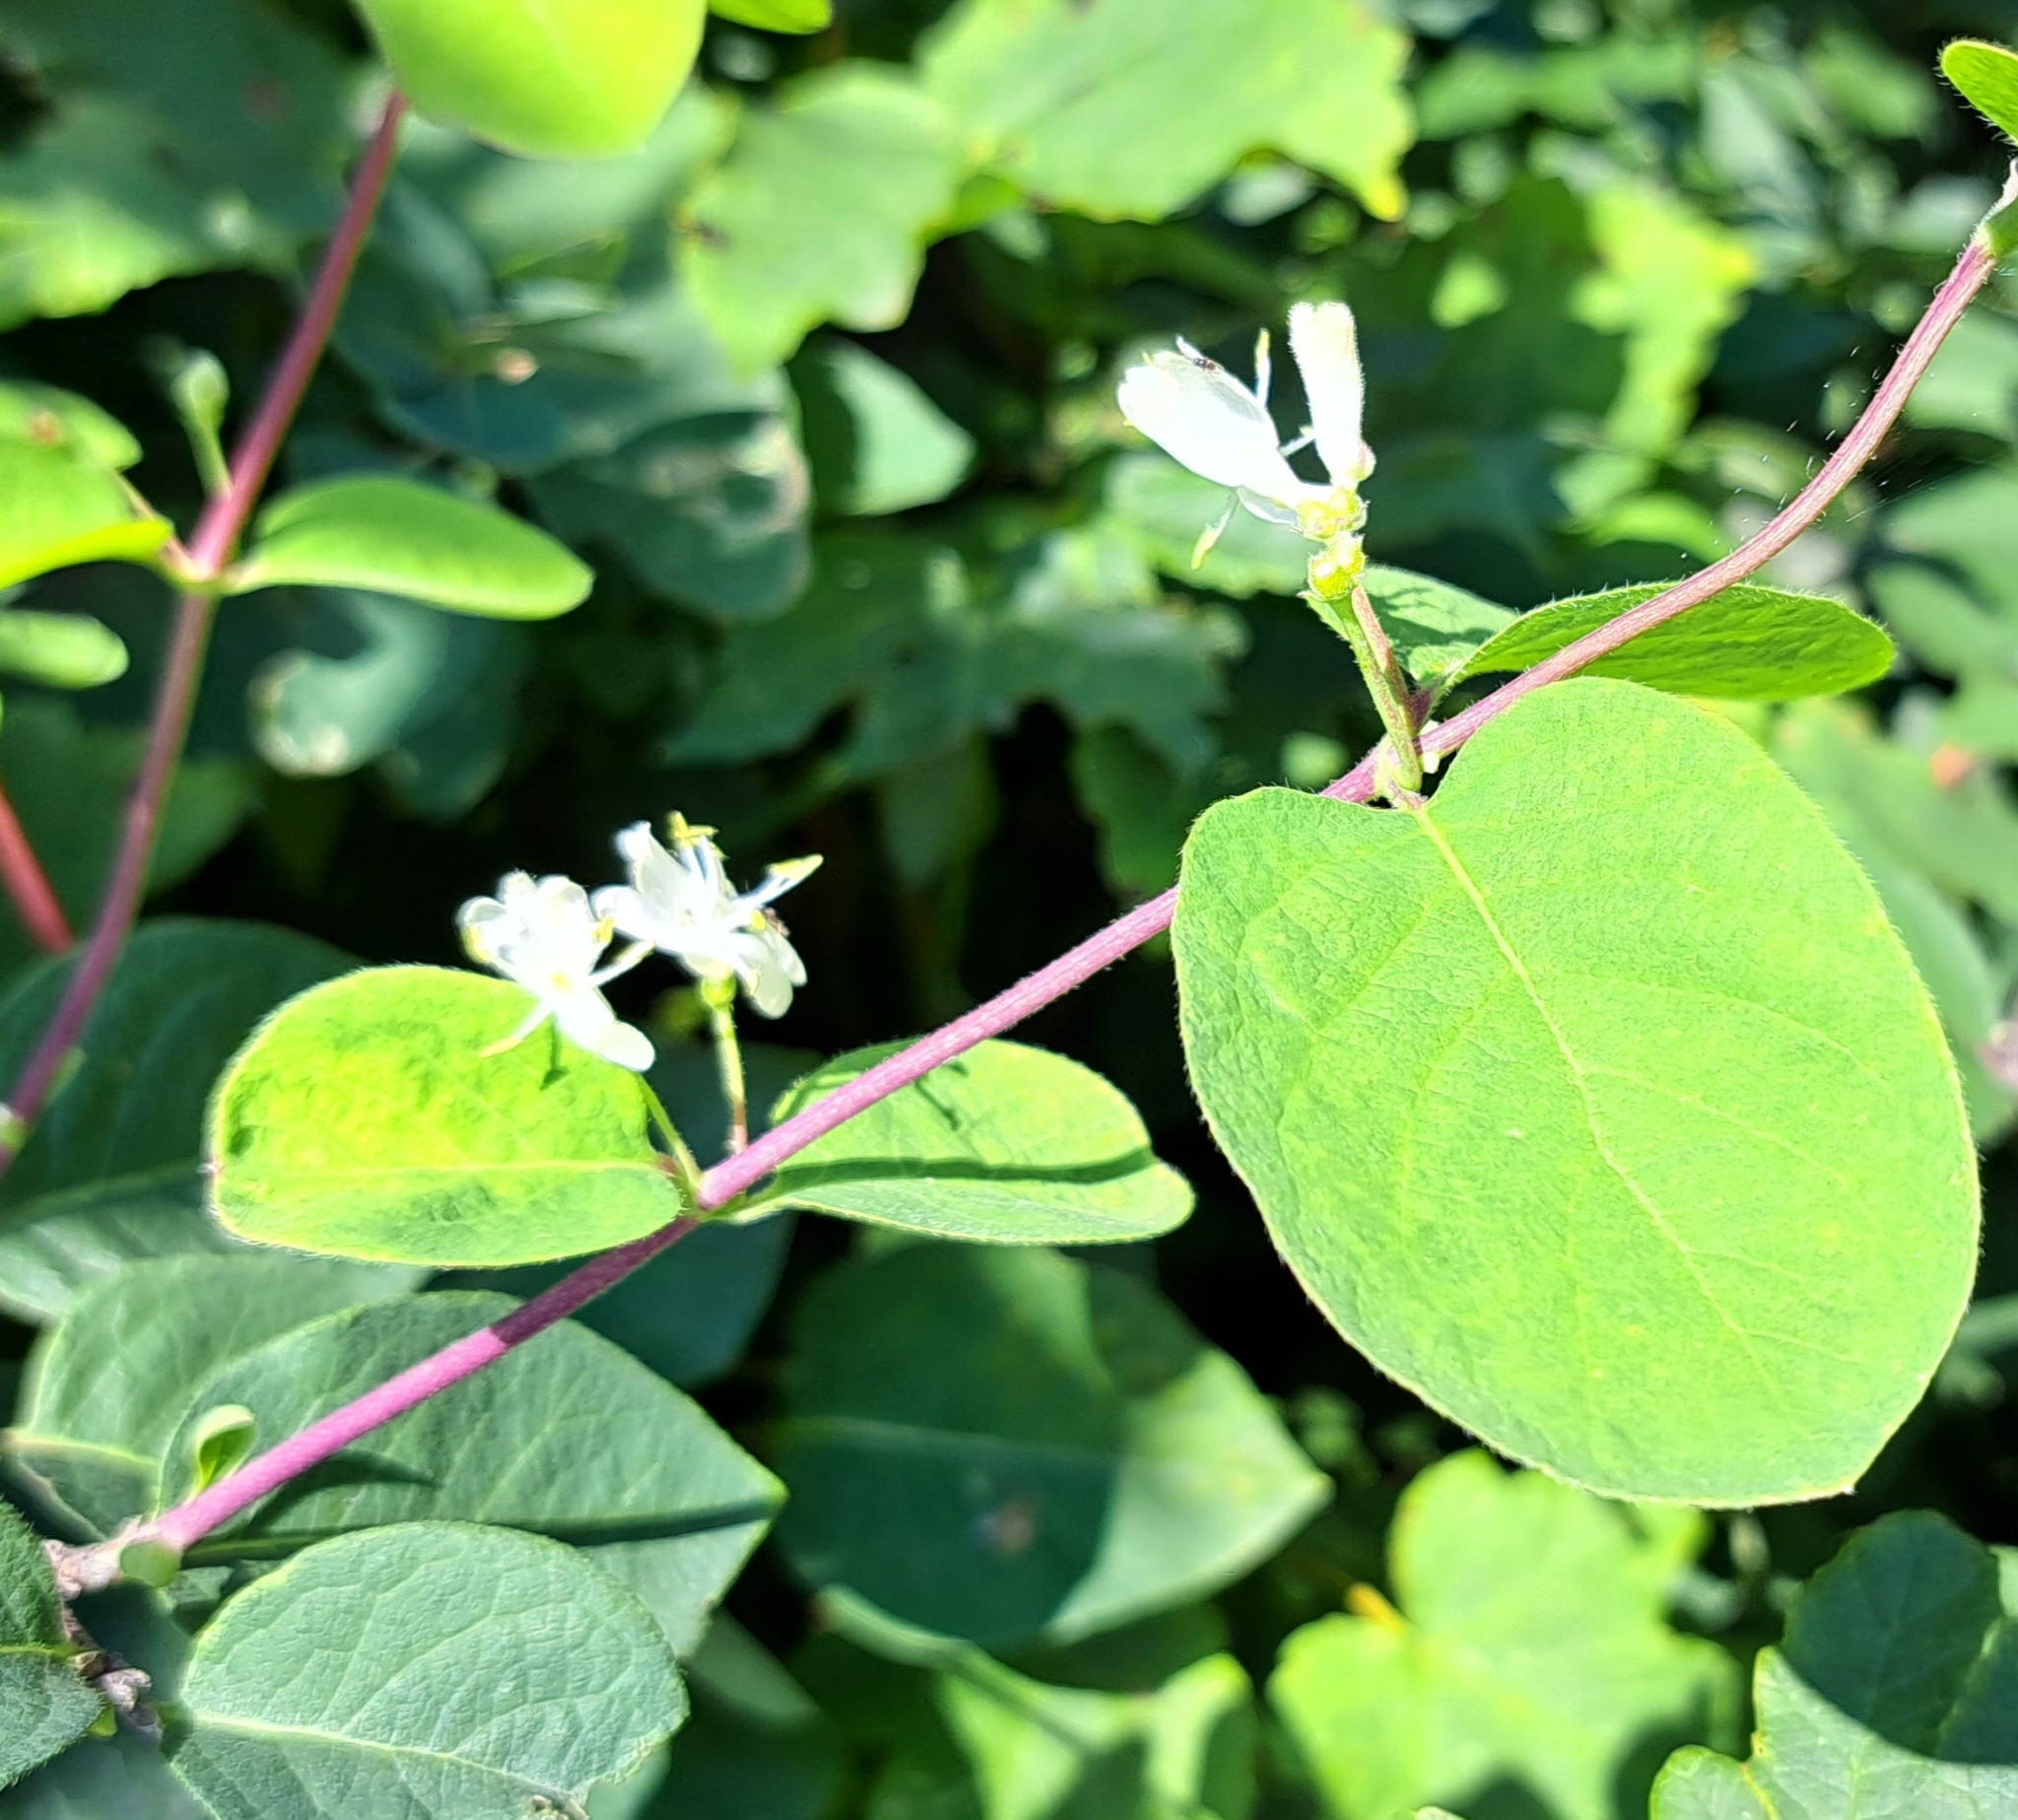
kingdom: Plantae
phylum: Tracheophyta
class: Magnoliopsida
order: Dipsacales
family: Caprifoliaceae
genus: Lonicera
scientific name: Lonicera xylosteum
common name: Fly honeysuckle
